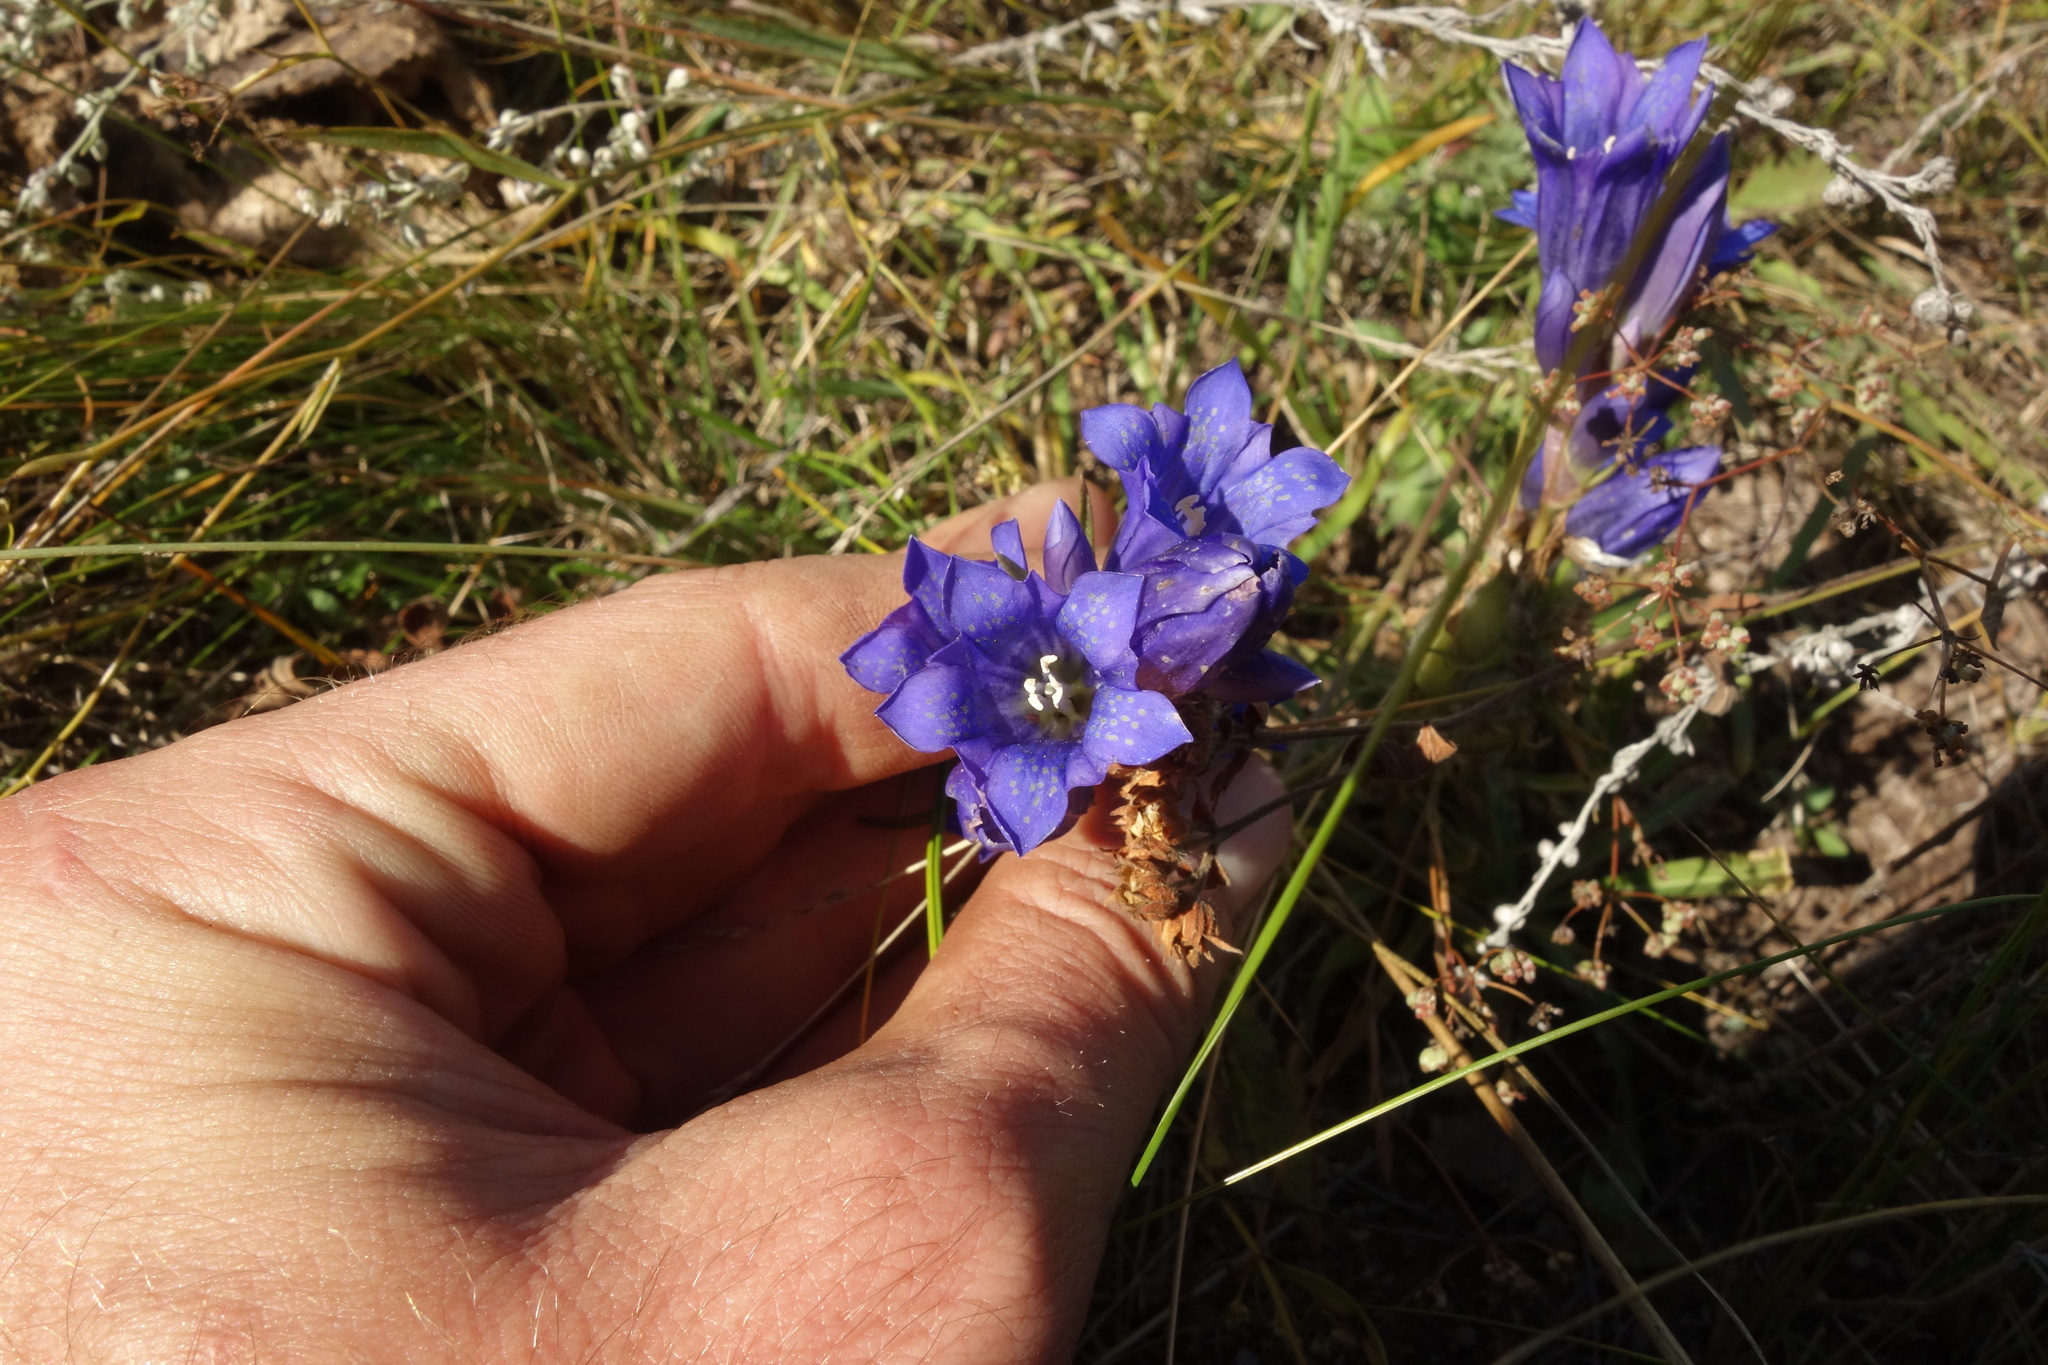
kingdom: Plantae
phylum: Tracheophyta
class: Magnoliopsida
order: Gentianales
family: Gentianaceae
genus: Gentiana
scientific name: Gentiana decumbens
